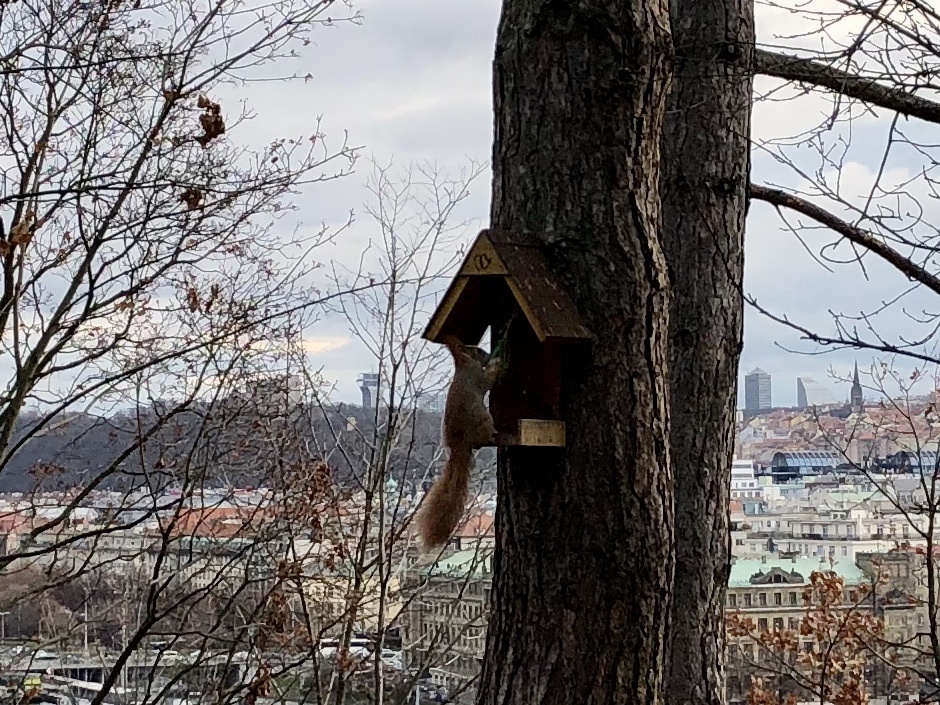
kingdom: Animalia
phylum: Chordata
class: Mammalia
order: Rodentia
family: Sciuridae
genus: Sciurus
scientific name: Sciurus vulgaris
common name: Eurasian red squirrel
